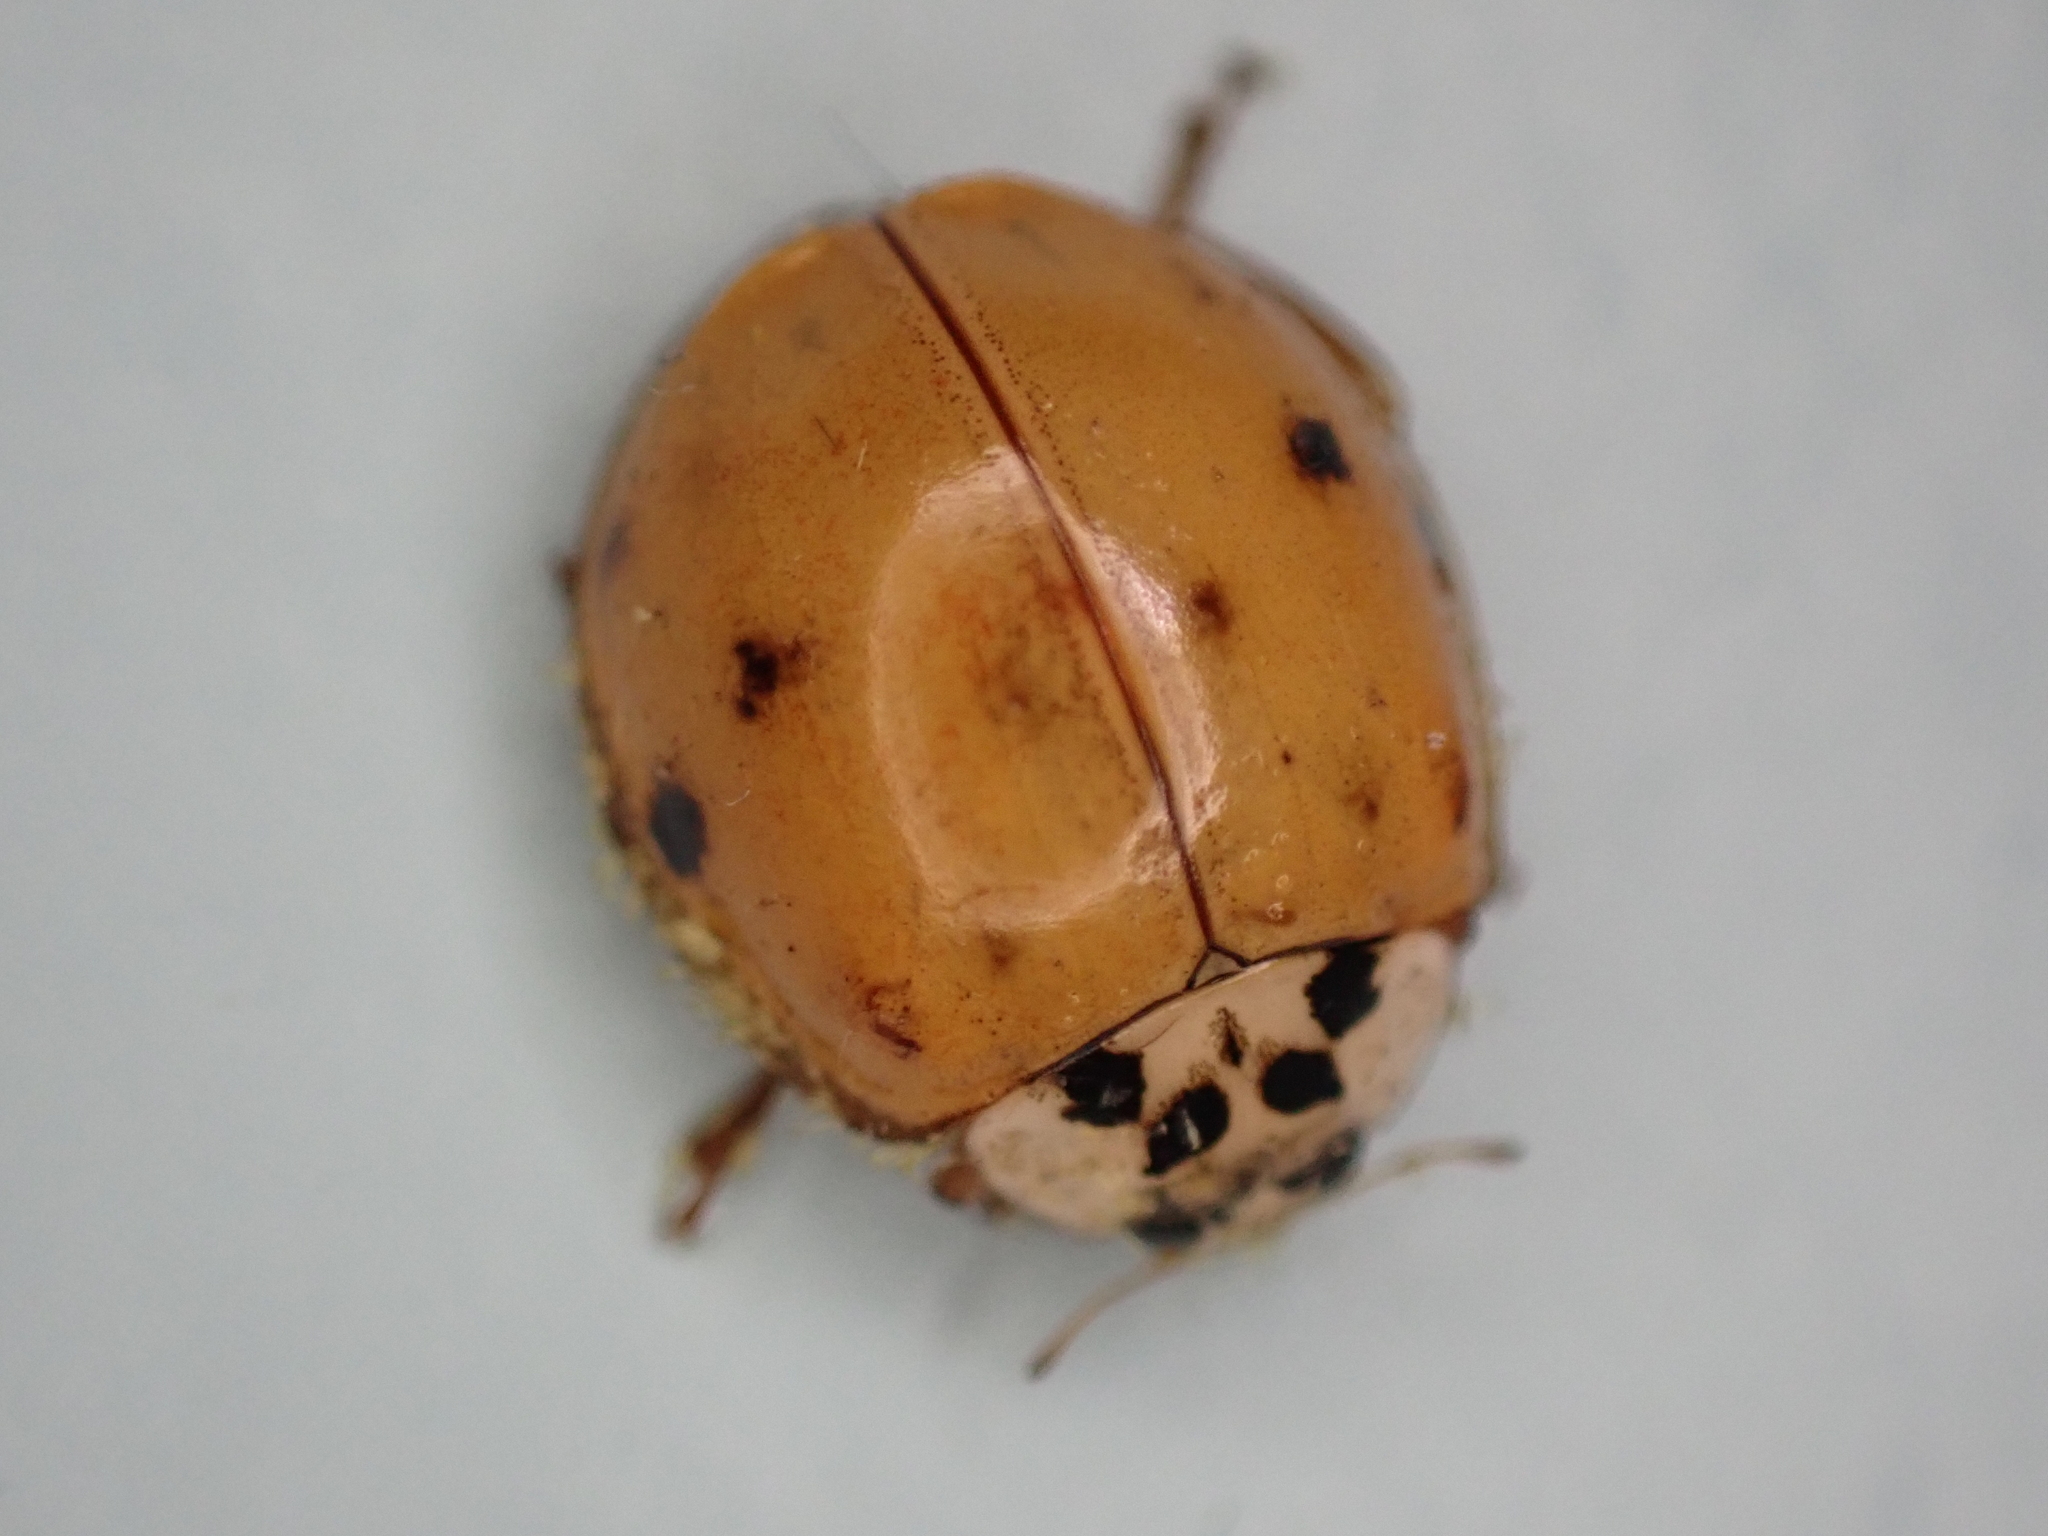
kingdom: Animalia
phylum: Arthropoda
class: Insecta
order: Coleoptera
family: Coccinellidae
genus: Harmonia
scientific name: Harmonia axyridis
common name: Harlequin ladybird
